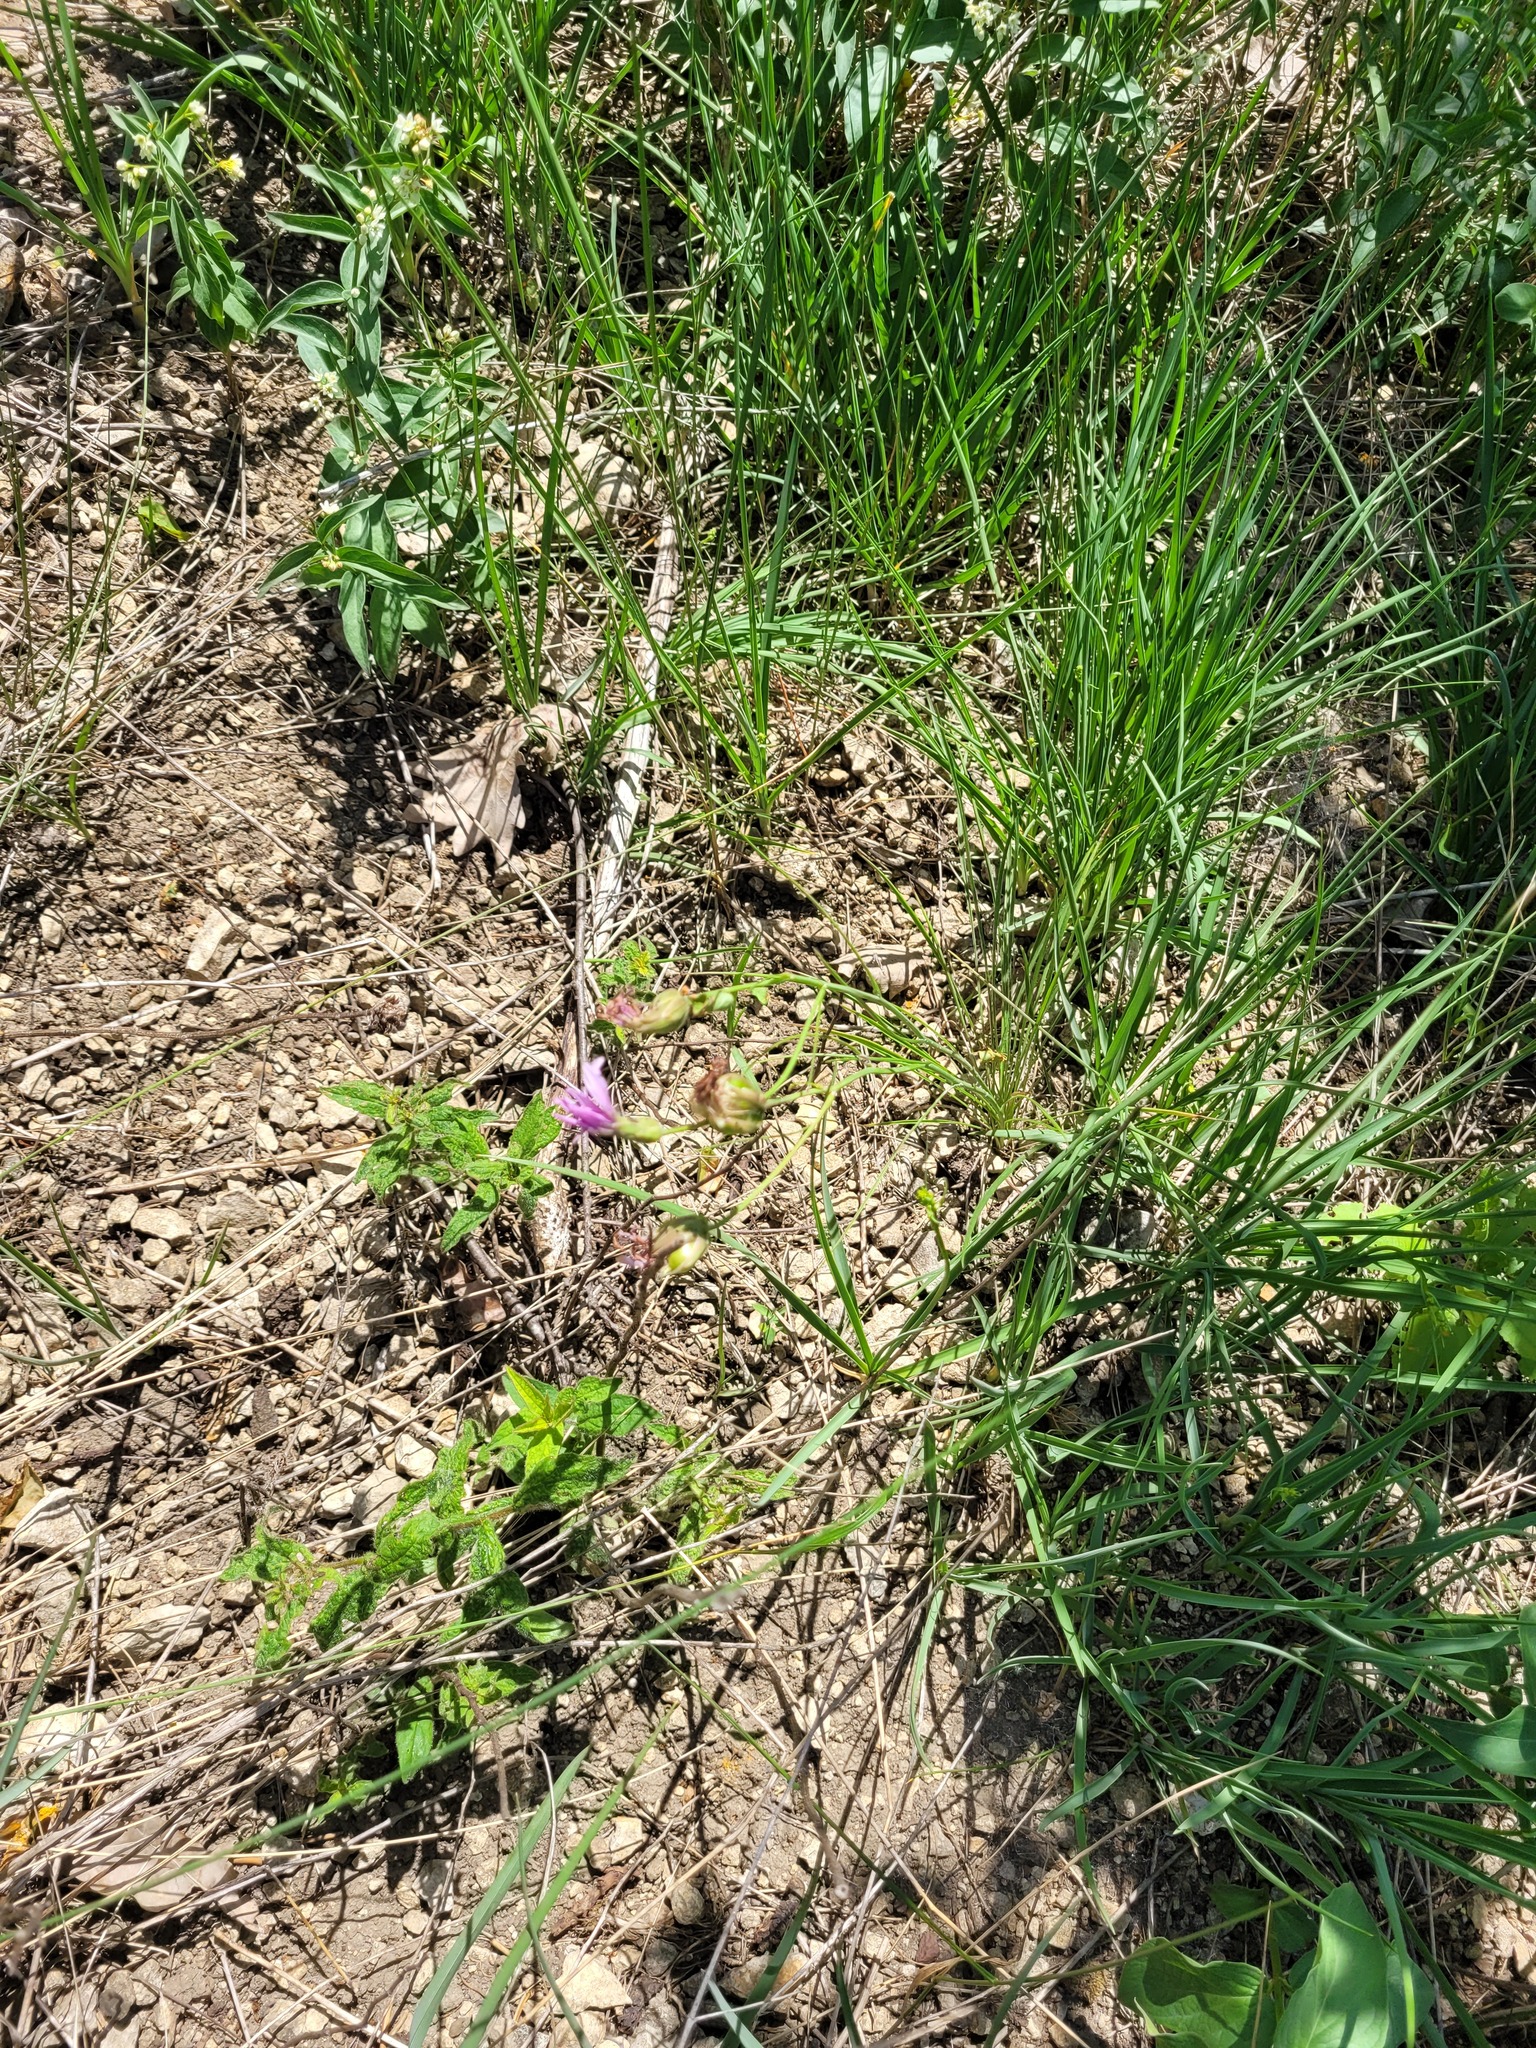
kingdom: Plantae
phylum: Tracheophyta
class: Magnoliopsida
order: Asterales
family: Asteraceae
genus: Scorzonera
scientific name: Scorzonera purpurea
